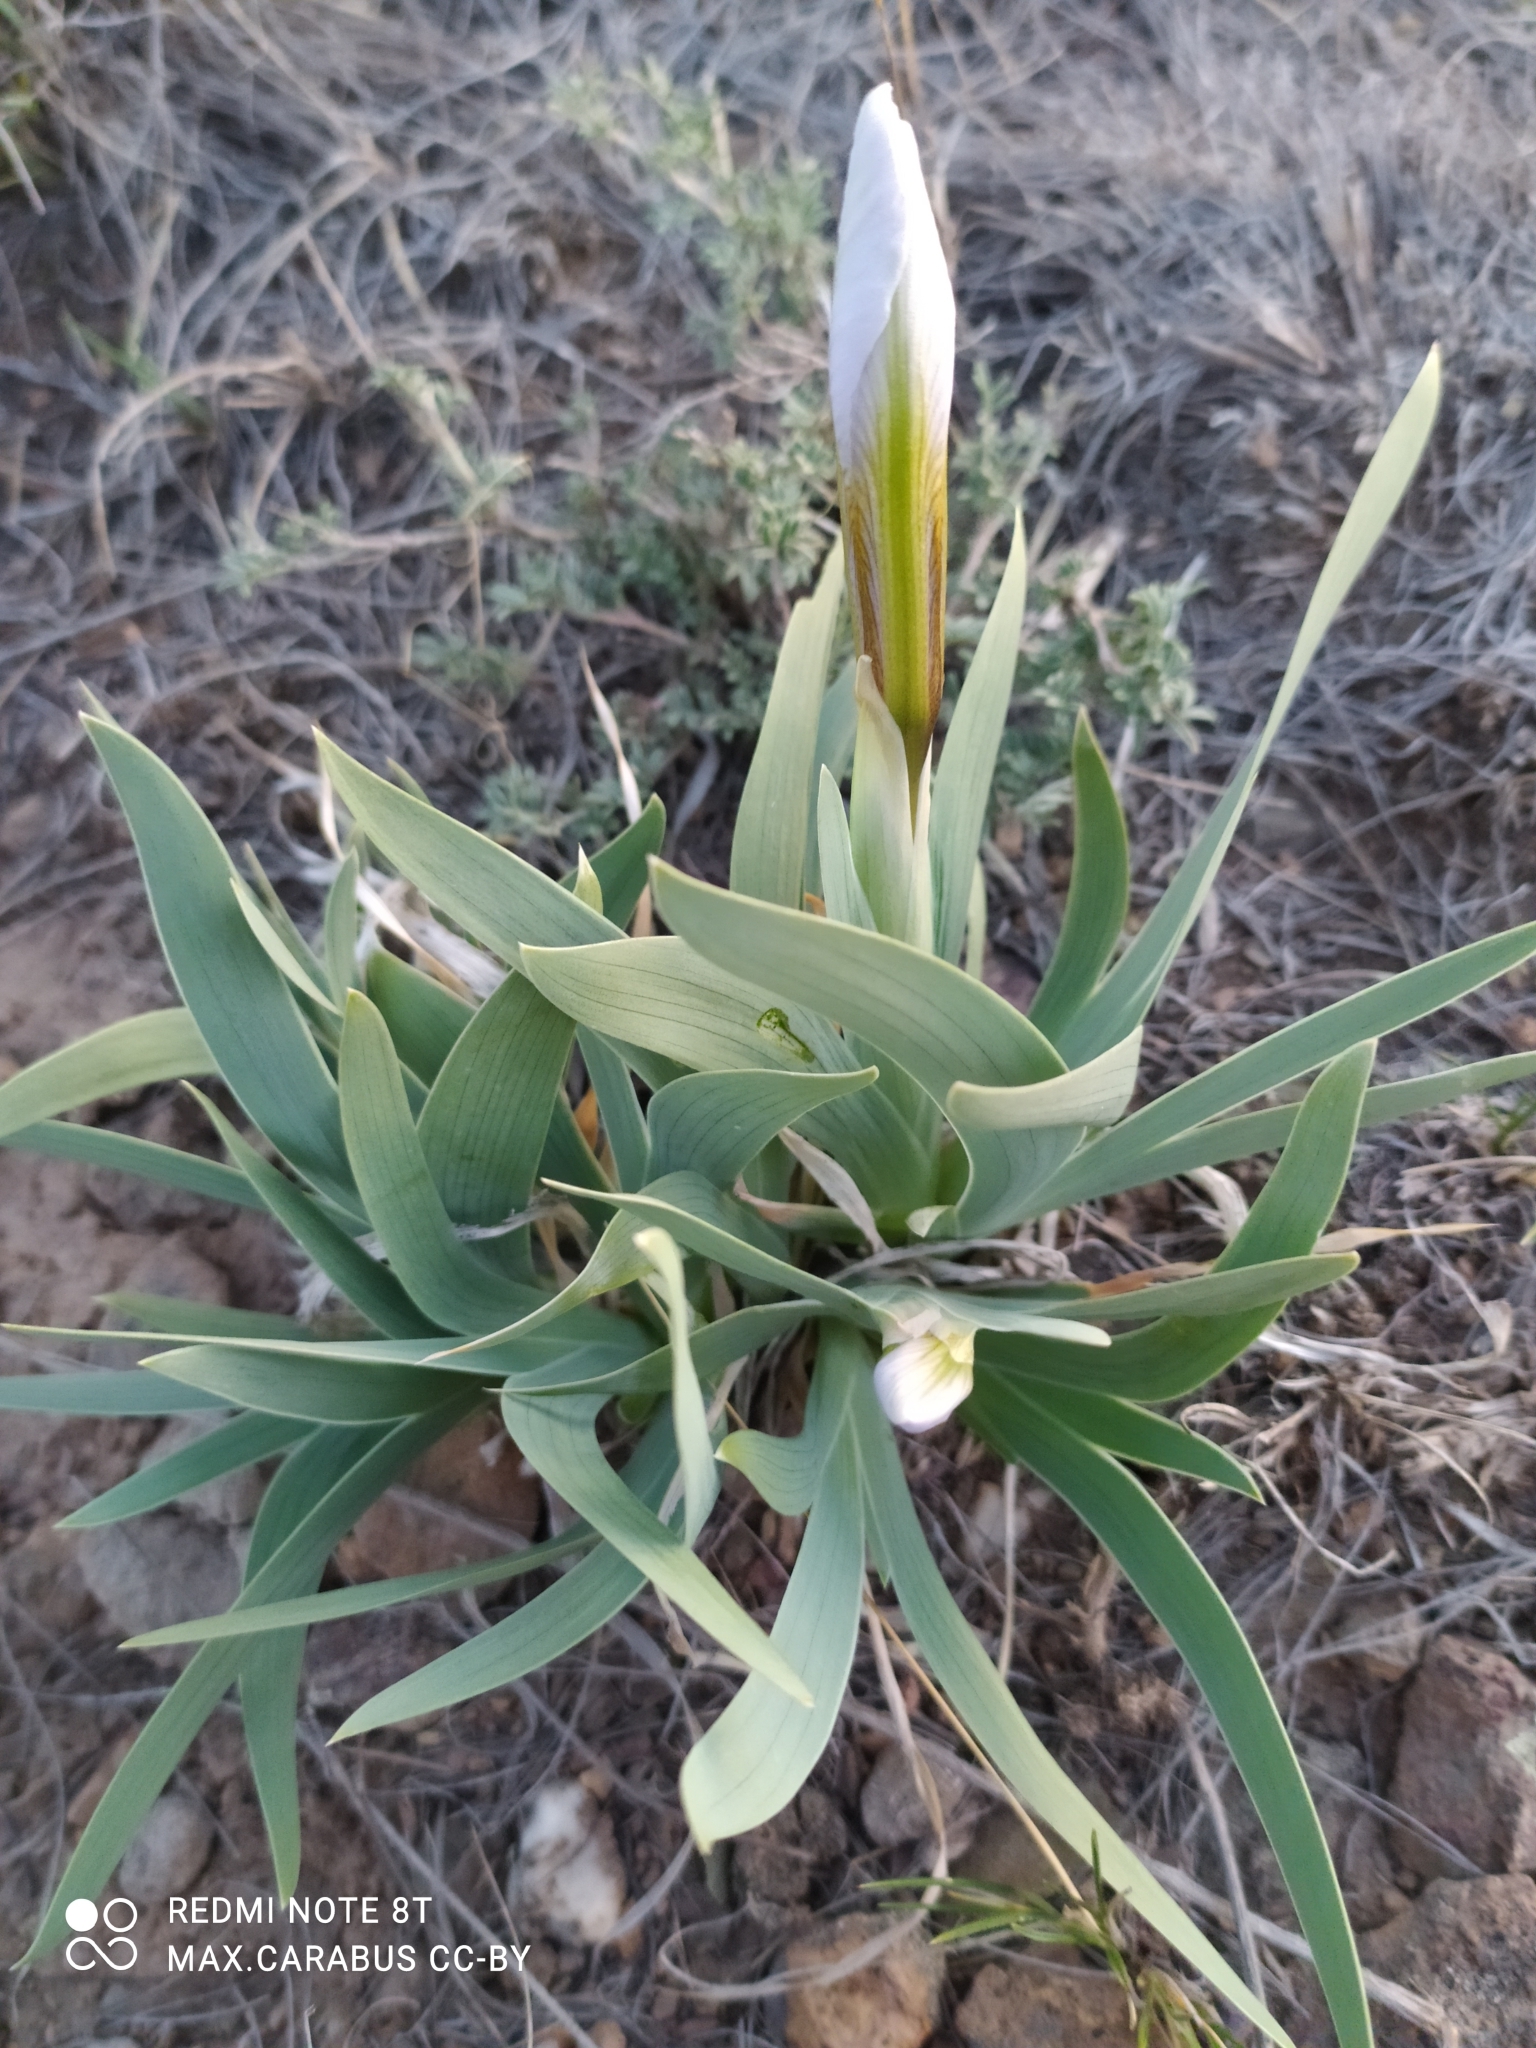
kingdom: Plantae
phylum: Tracheophyta
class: Liliopsida
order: Asparagales
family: Iridaceae
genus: Iris
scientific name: Iris glaucescens
